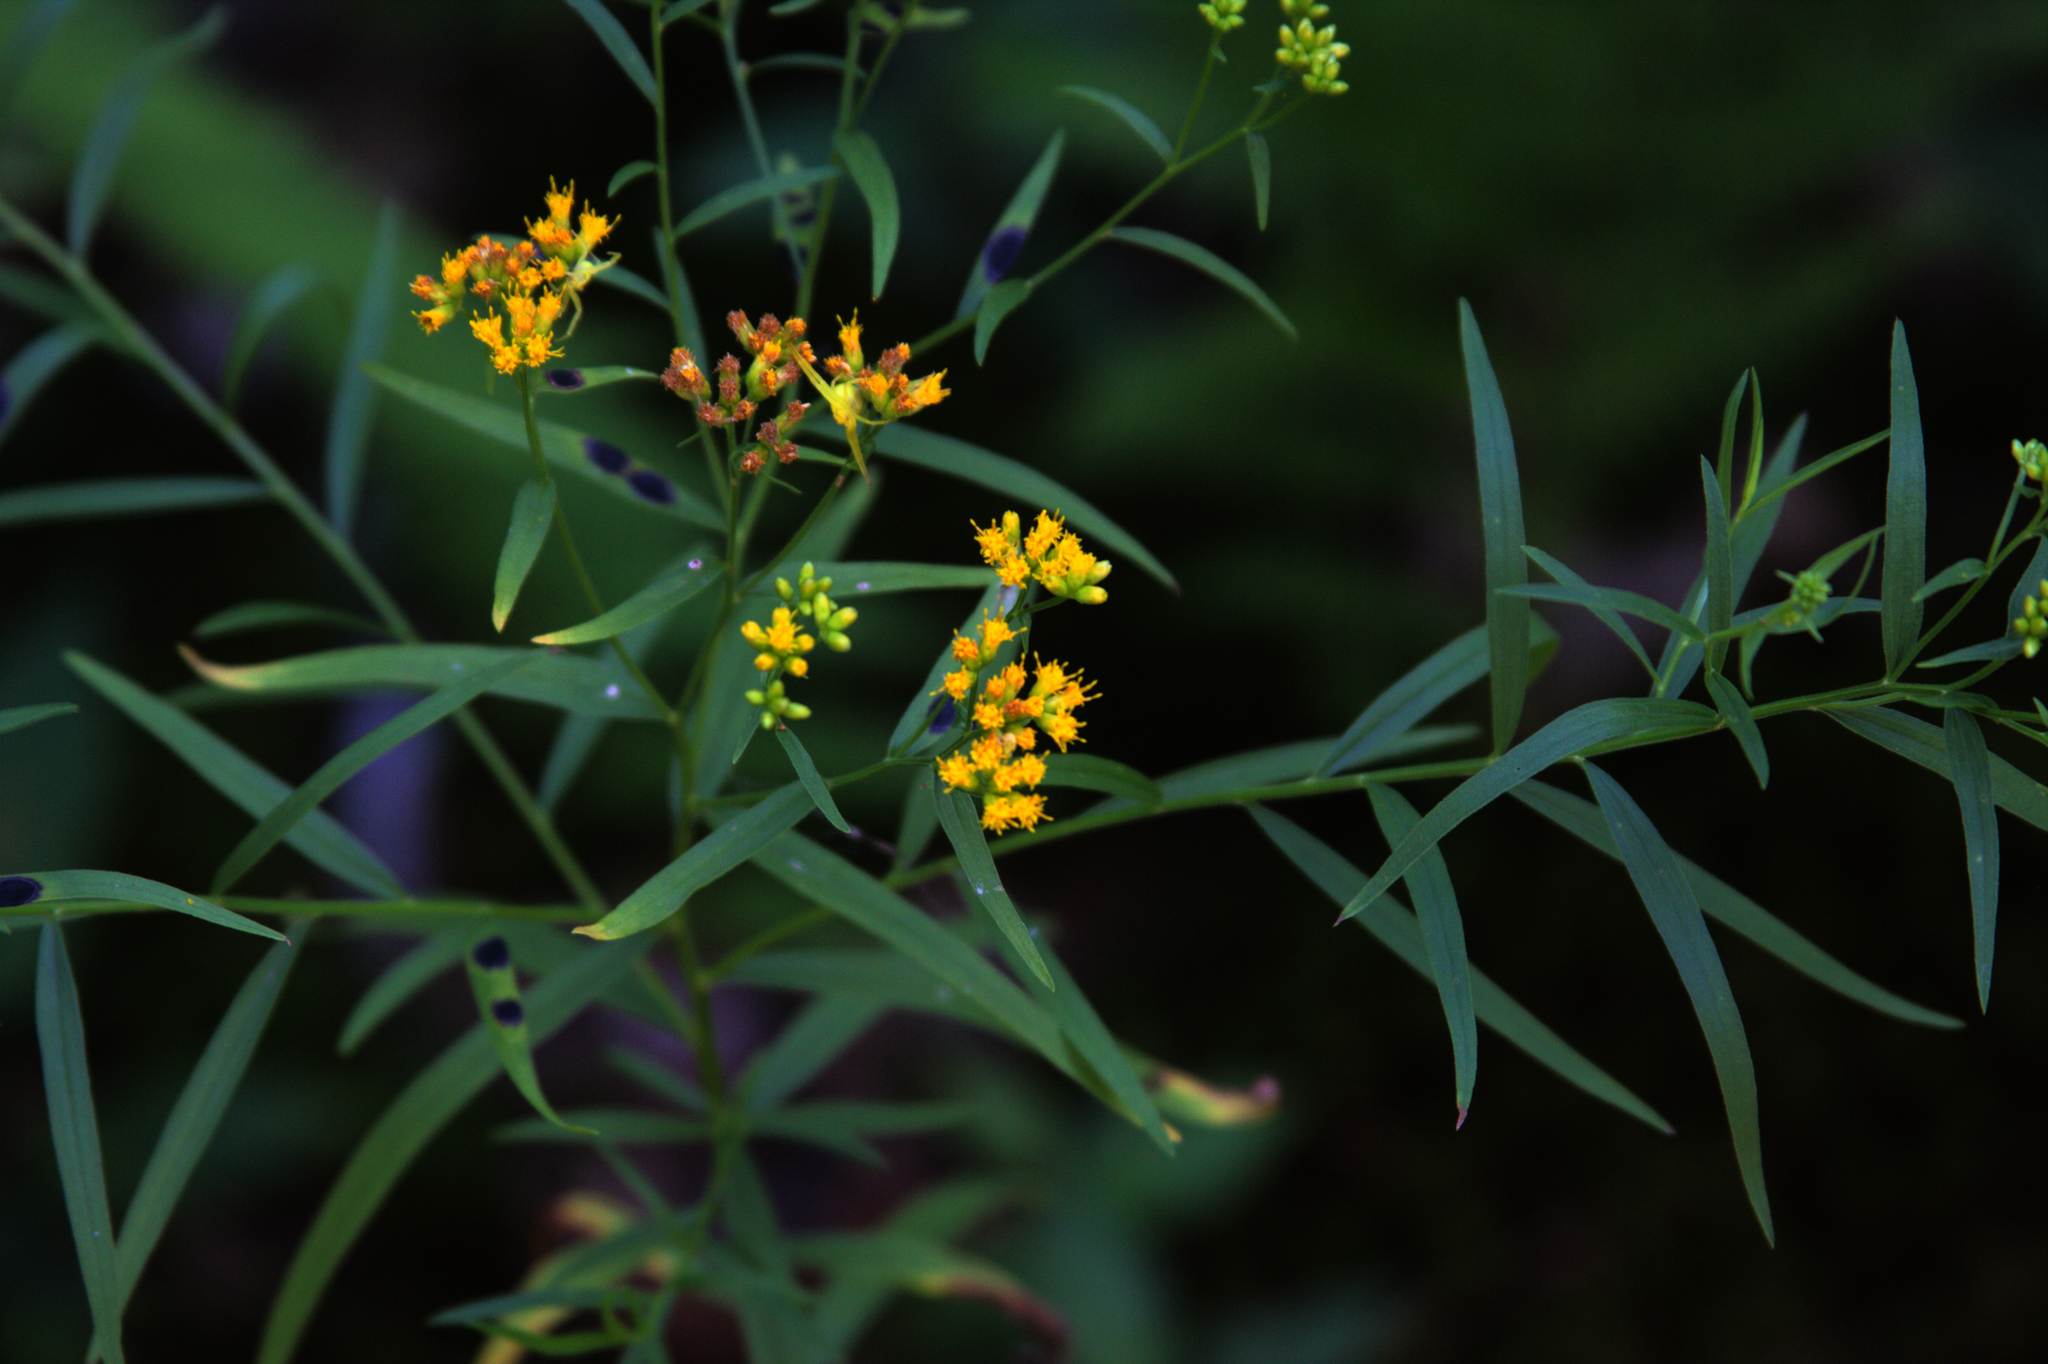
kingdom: Plantae
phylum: Tracheophyta
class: Magnoliopsida
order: Asterales
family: Asteraceae
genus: Euthamia
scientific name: Euthamia graminifolia
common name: Common goldentop
